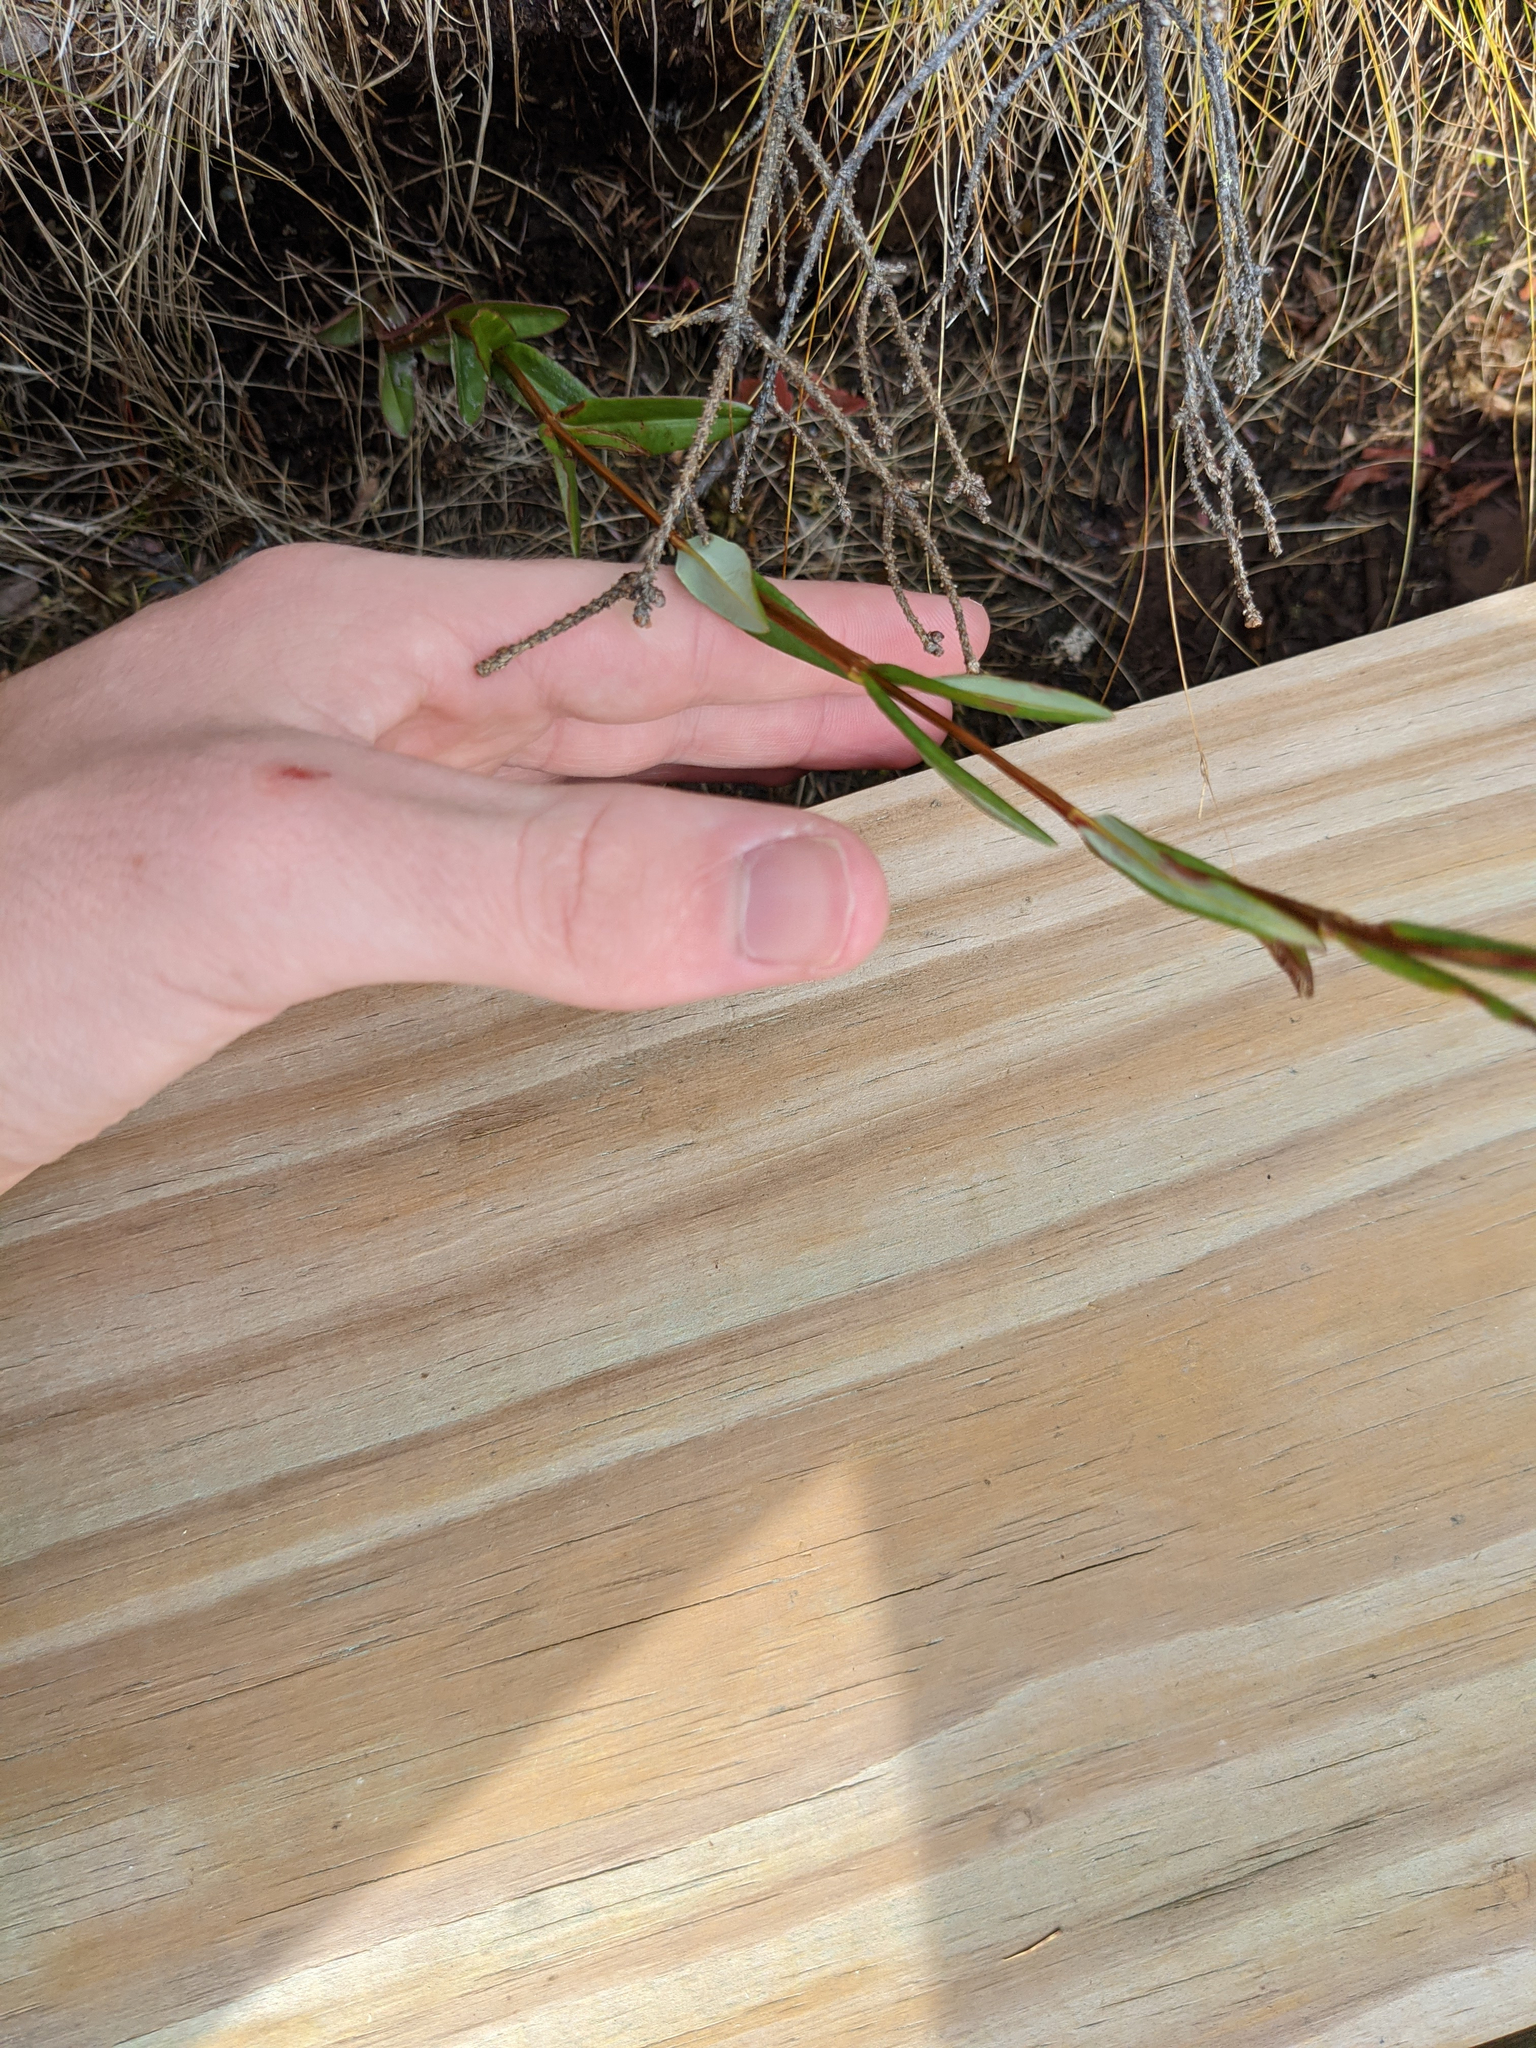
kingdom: Plantae
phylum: Tracheophyta
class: Magnoliopsida
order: Ericales
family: Ericaceae
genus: Kalmia
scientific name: Kalmia polifolia
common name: Bog-laurel
